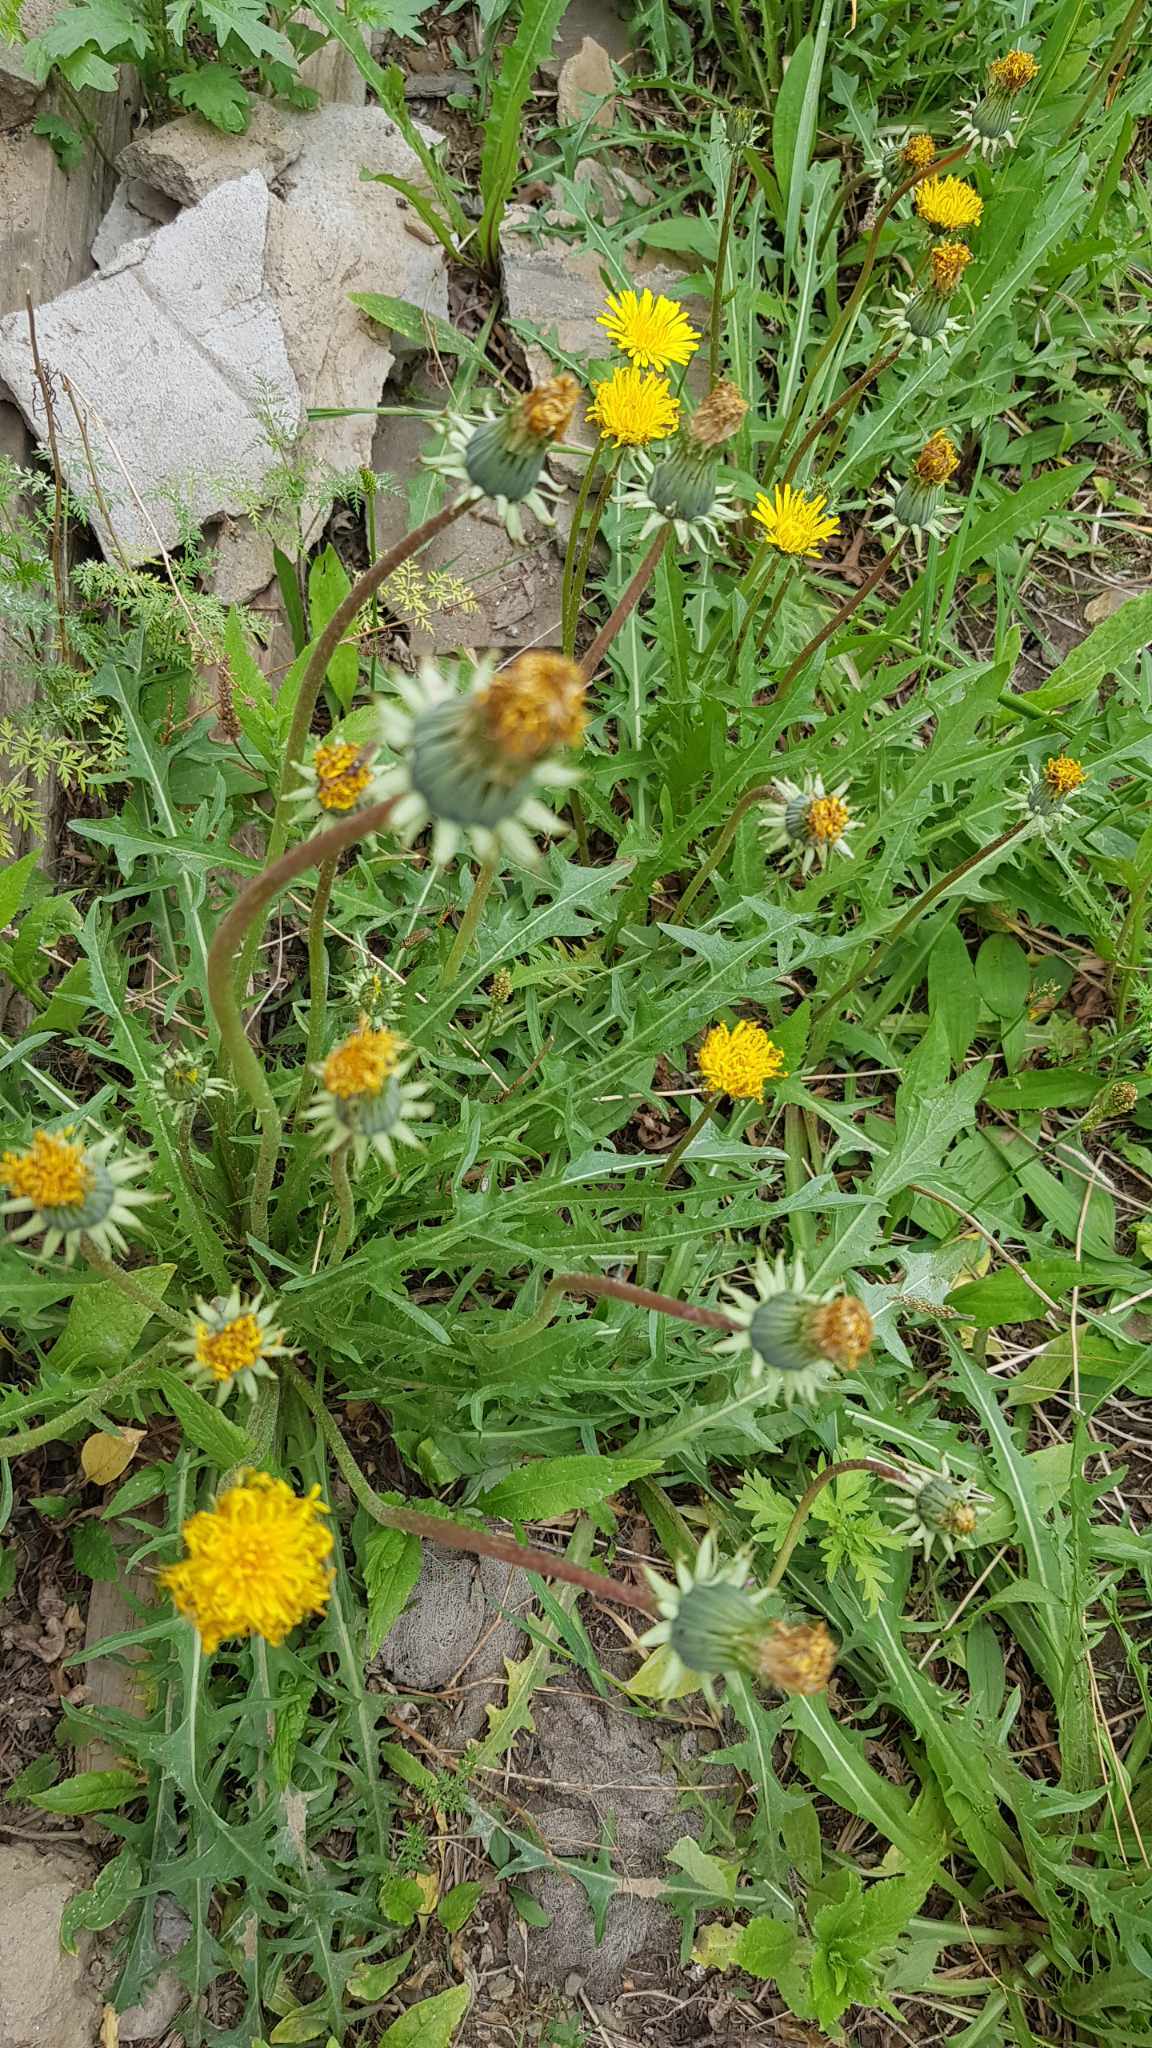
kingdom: Plantae
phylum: Tracheophyta
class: Magnoliopsida
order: Asterales
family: Asteraceae
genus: Taraxacum
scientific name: Taraxacum mongolicum
